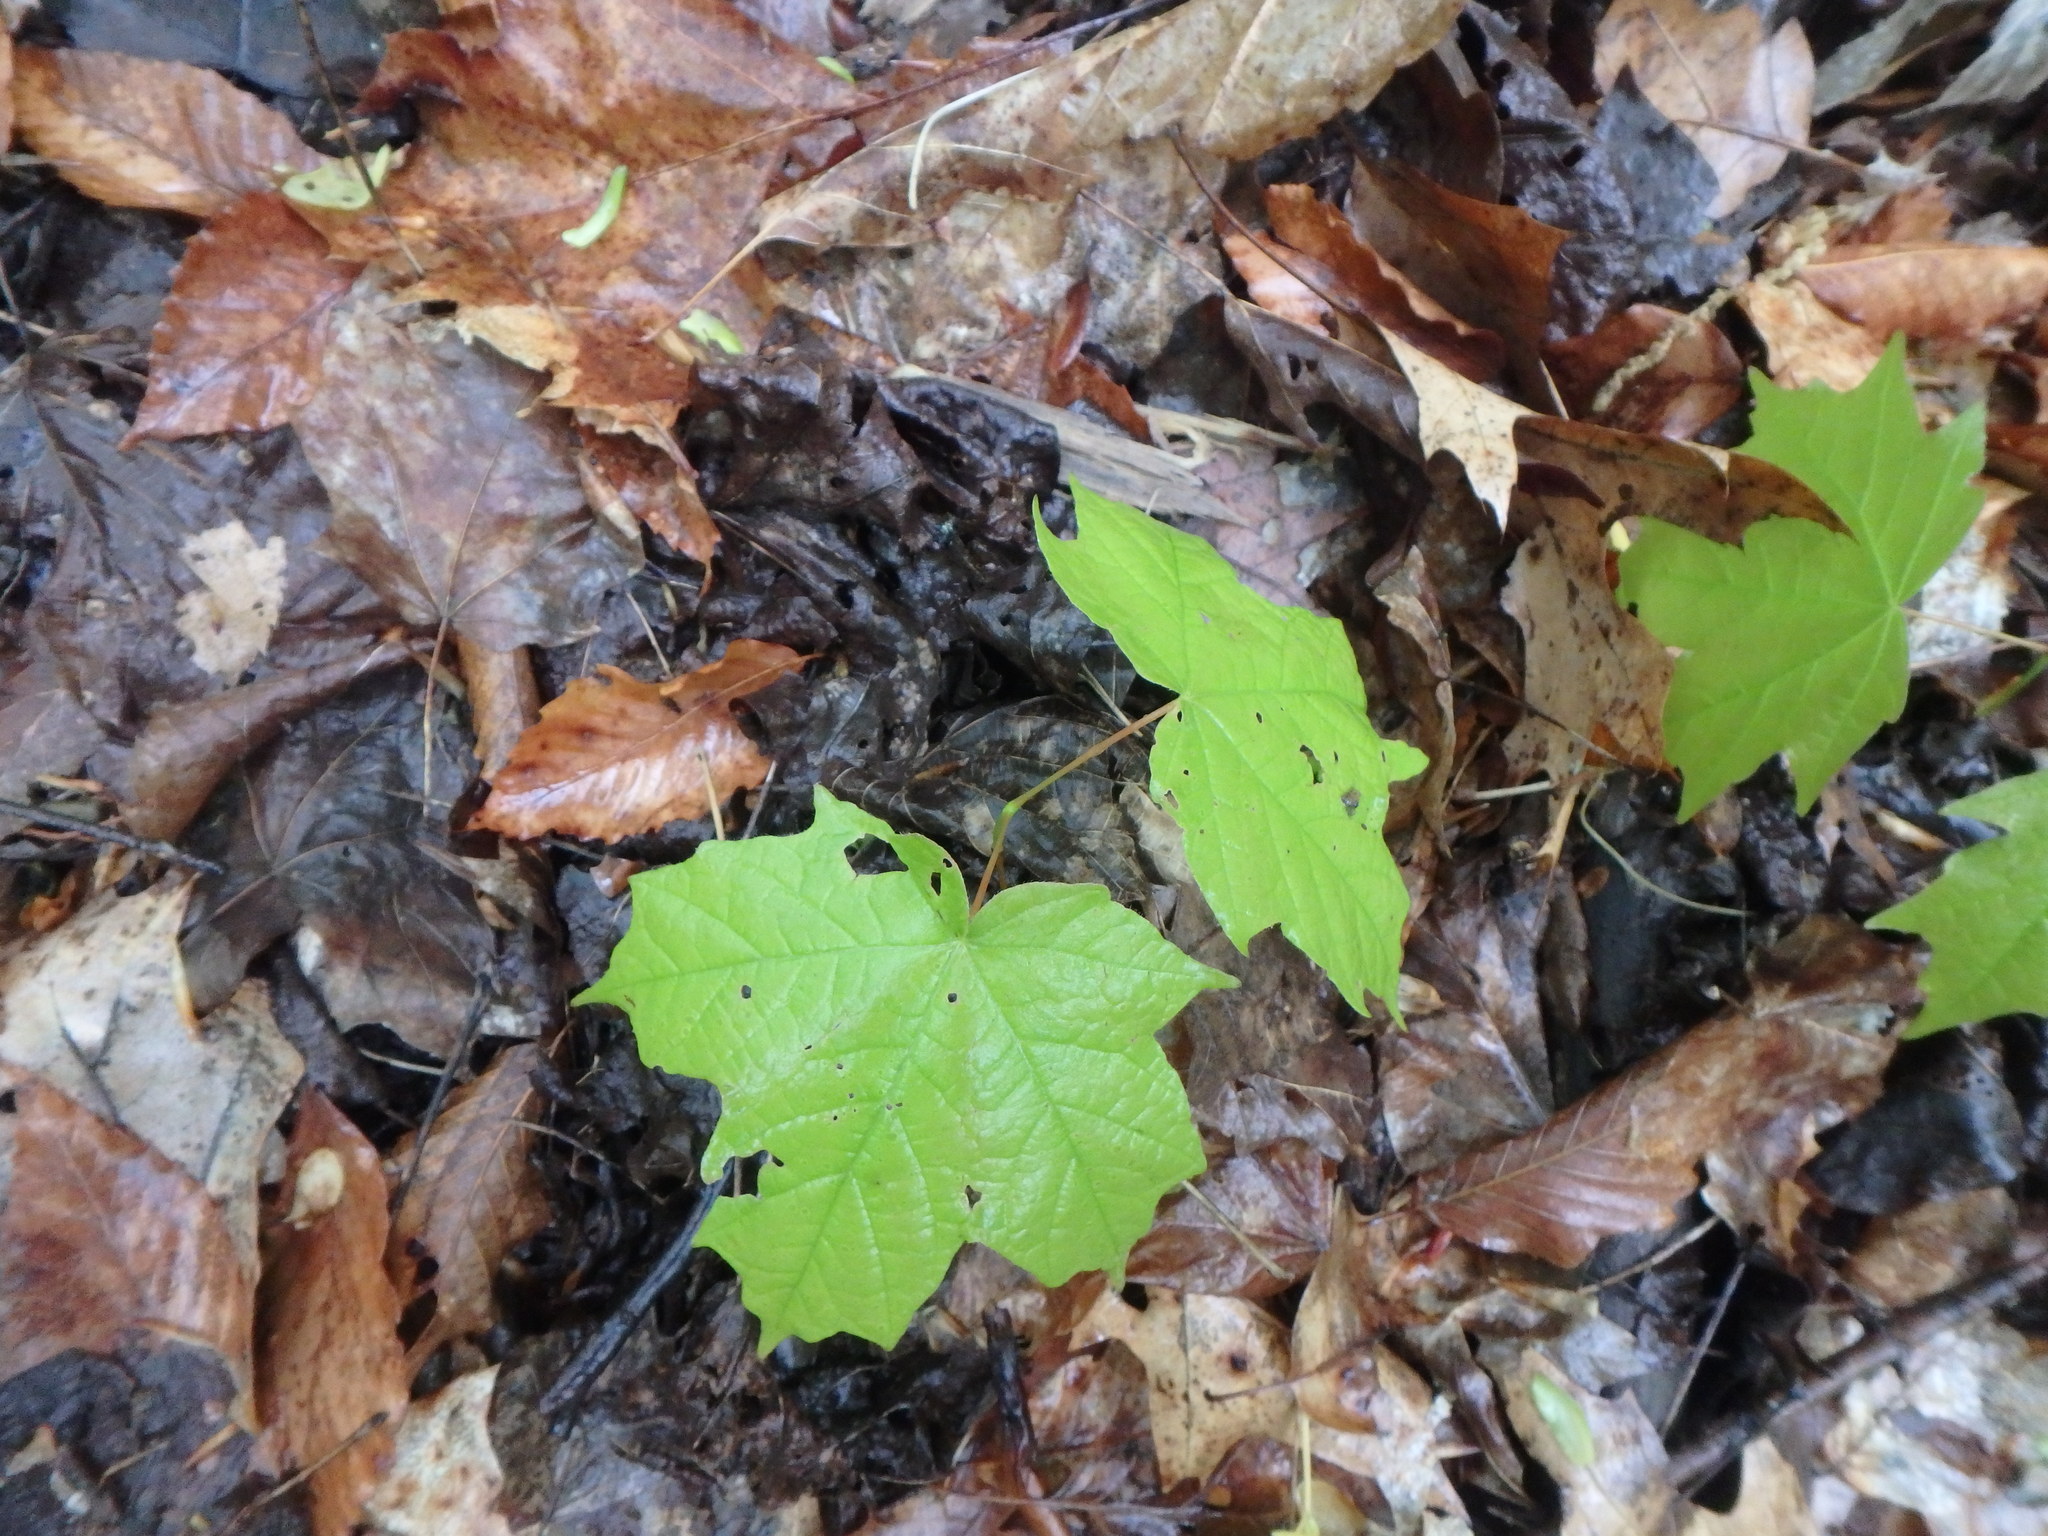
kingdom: Plantae
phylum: Tracheophyta
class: Magnoliopsida
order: Sapindales
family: Sapindaceae
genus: Acer
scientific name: Acer saccharum
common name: Sugar maple
